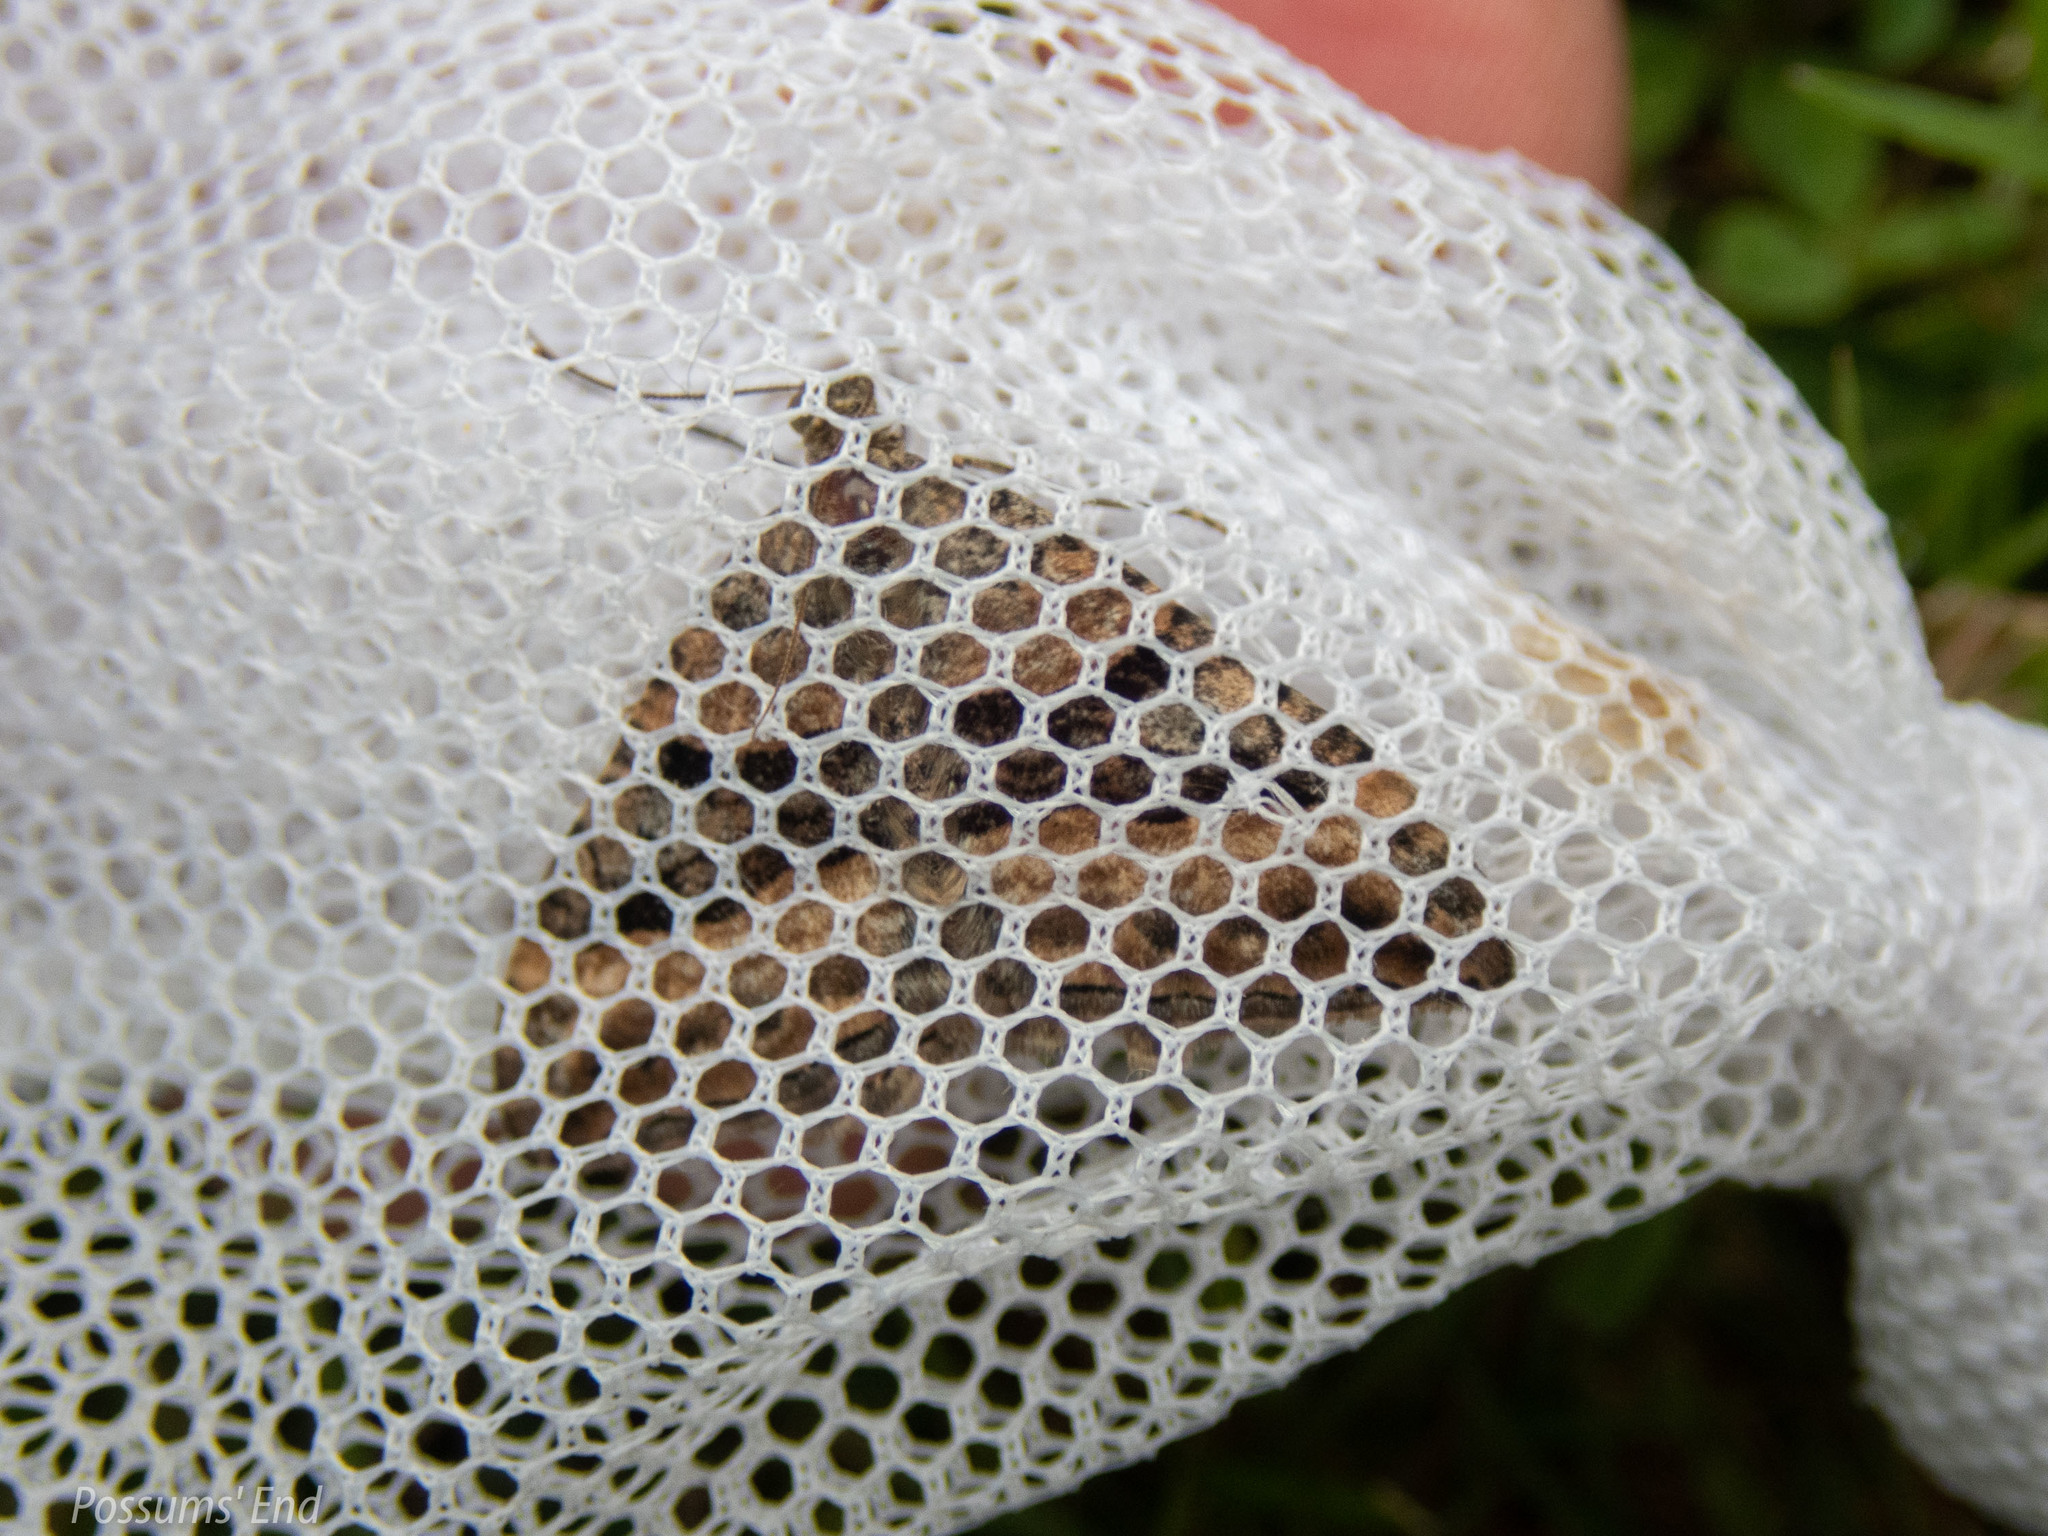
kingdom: Animalia
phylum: Arthropoda
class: Insecta
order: Lepidoptera
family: Geometridae
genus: Hydriomena
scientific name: Hydriomena deltoidata
